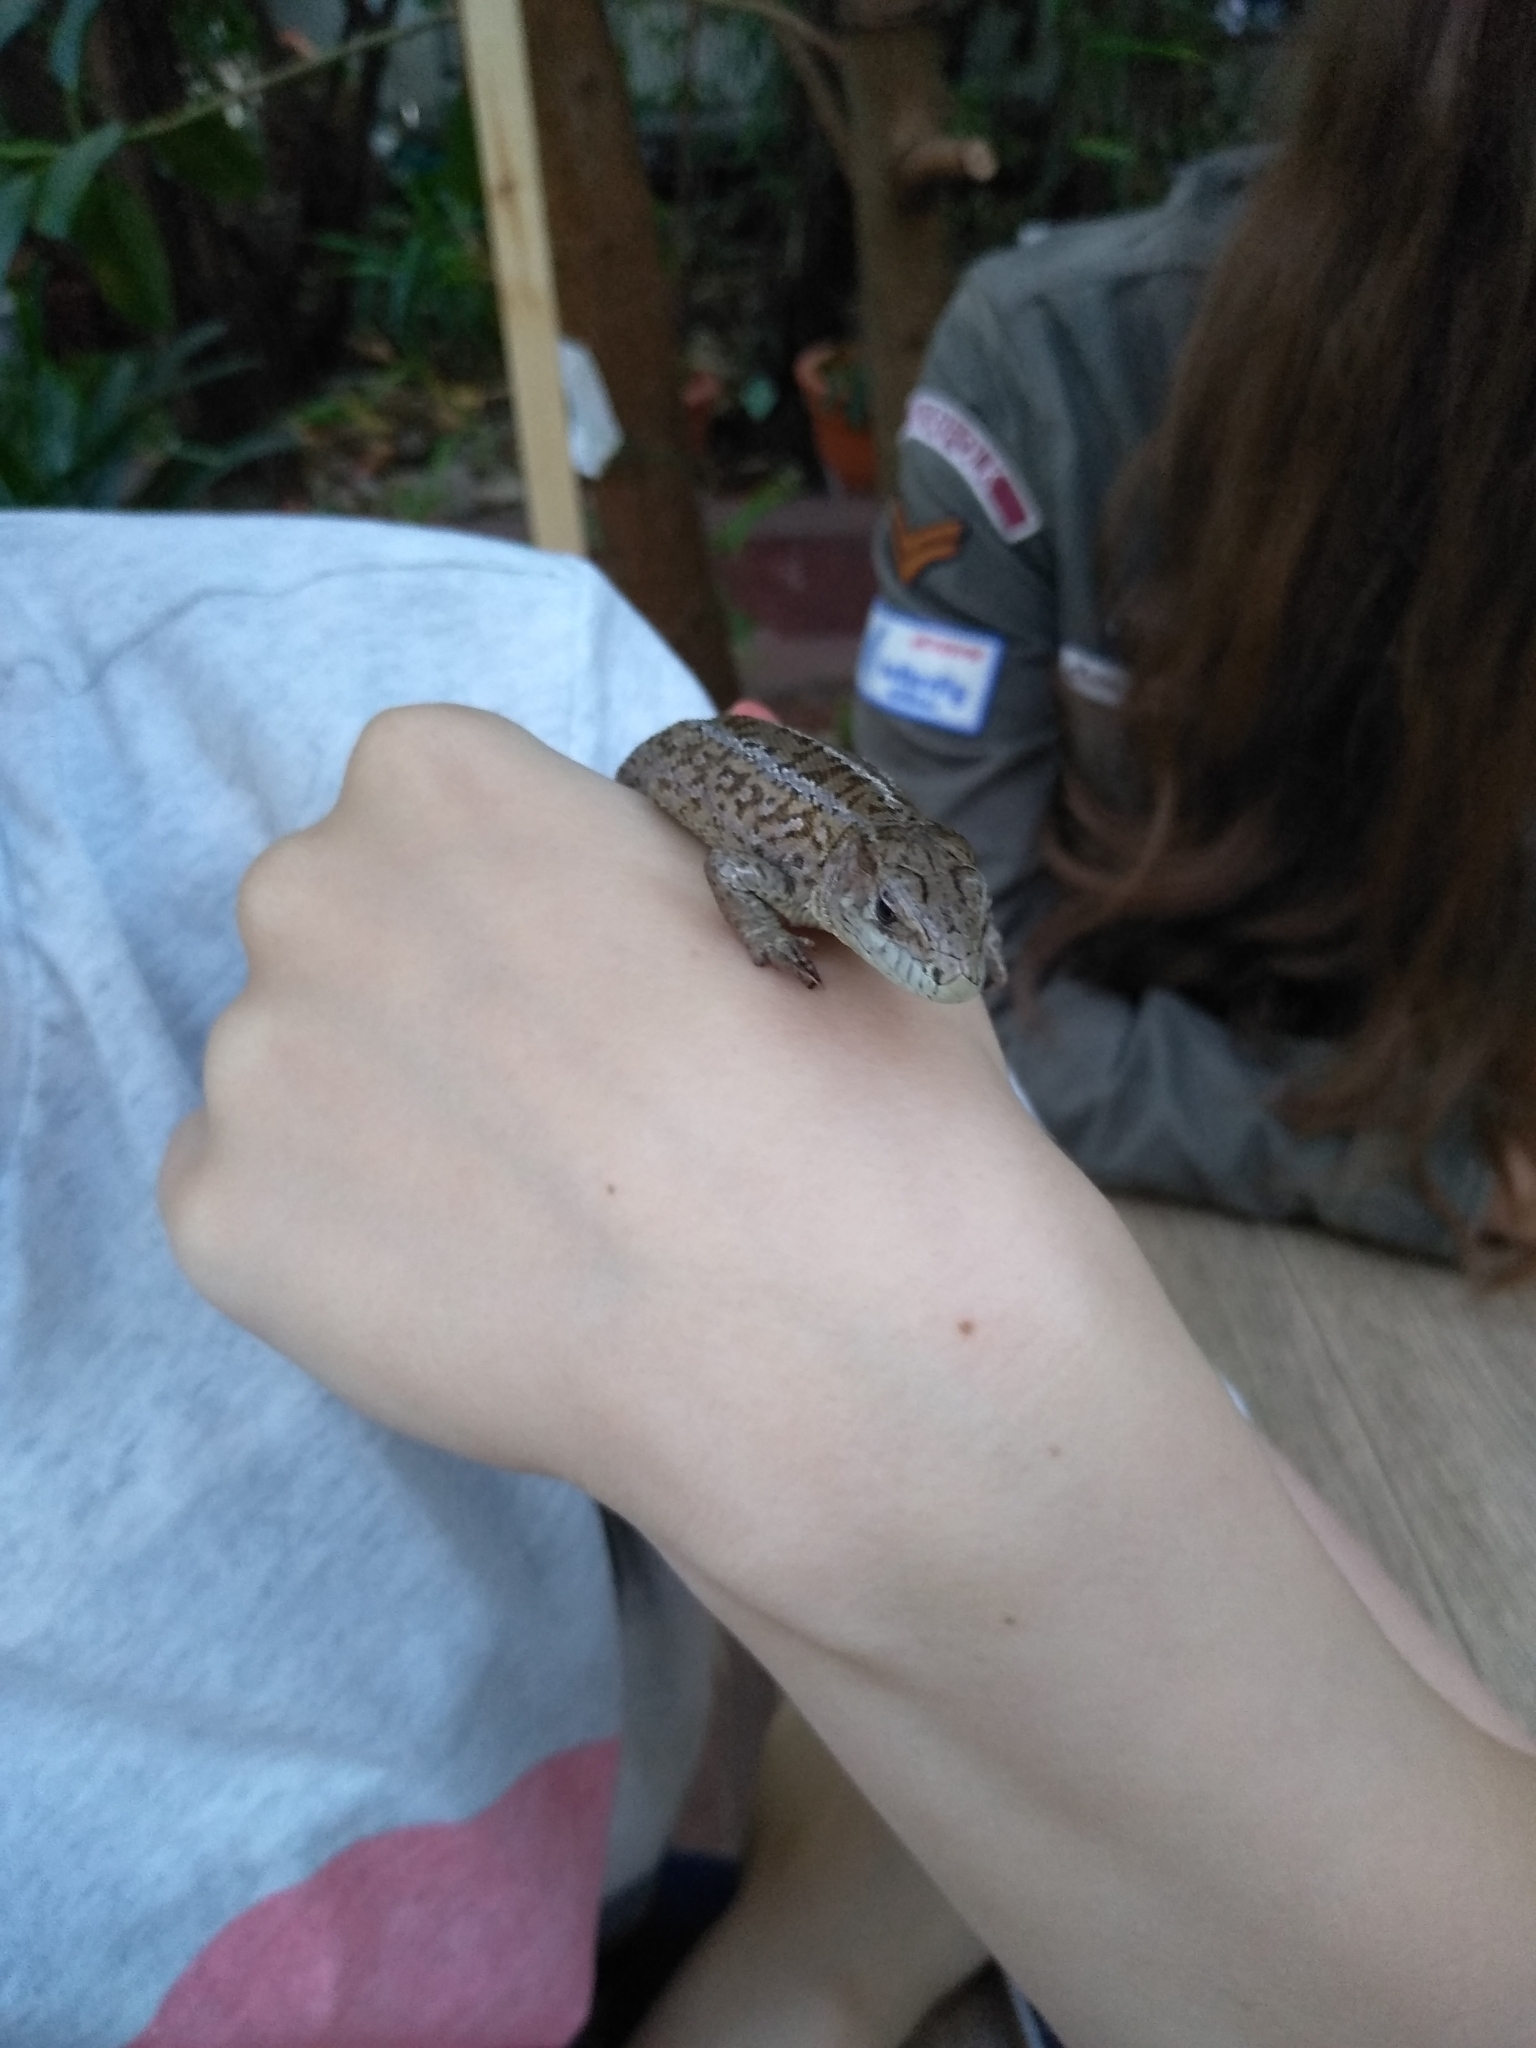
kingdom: Animalia
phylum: Chordata
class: Squamata
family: Lacertidae
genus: Lacerta
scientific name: Lacerta agilis
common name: Sand lizard
